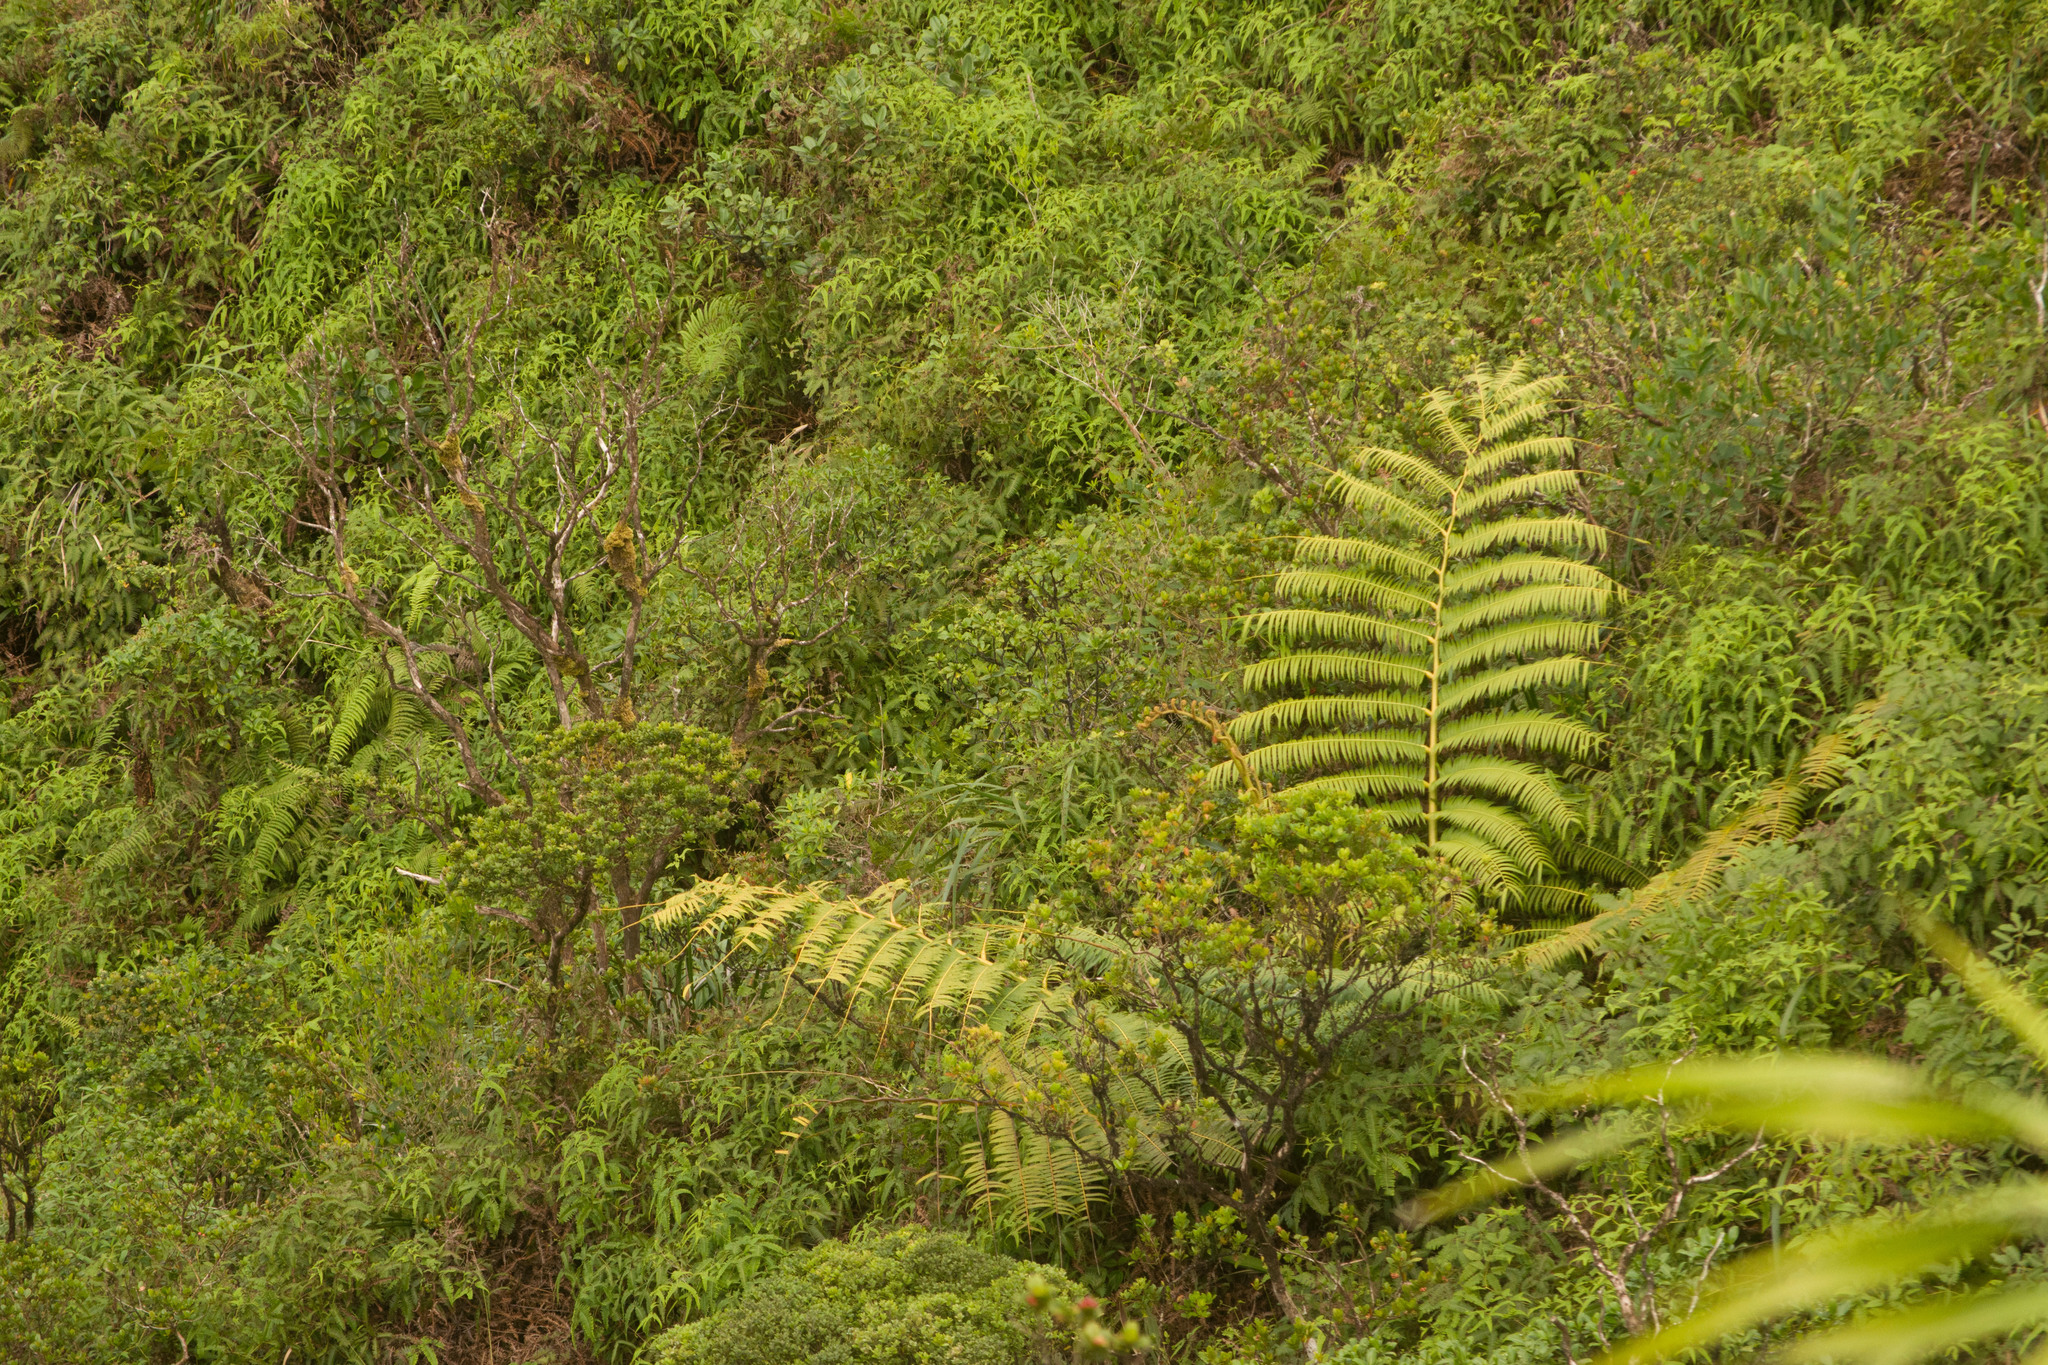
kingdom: Plantae
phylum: Tracheophyta
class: Polypodiopsida
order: Marattiales
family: Marattiaceae
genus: Angiopteris
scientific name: Angiopteris evecta
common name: Mule's-foot fern
